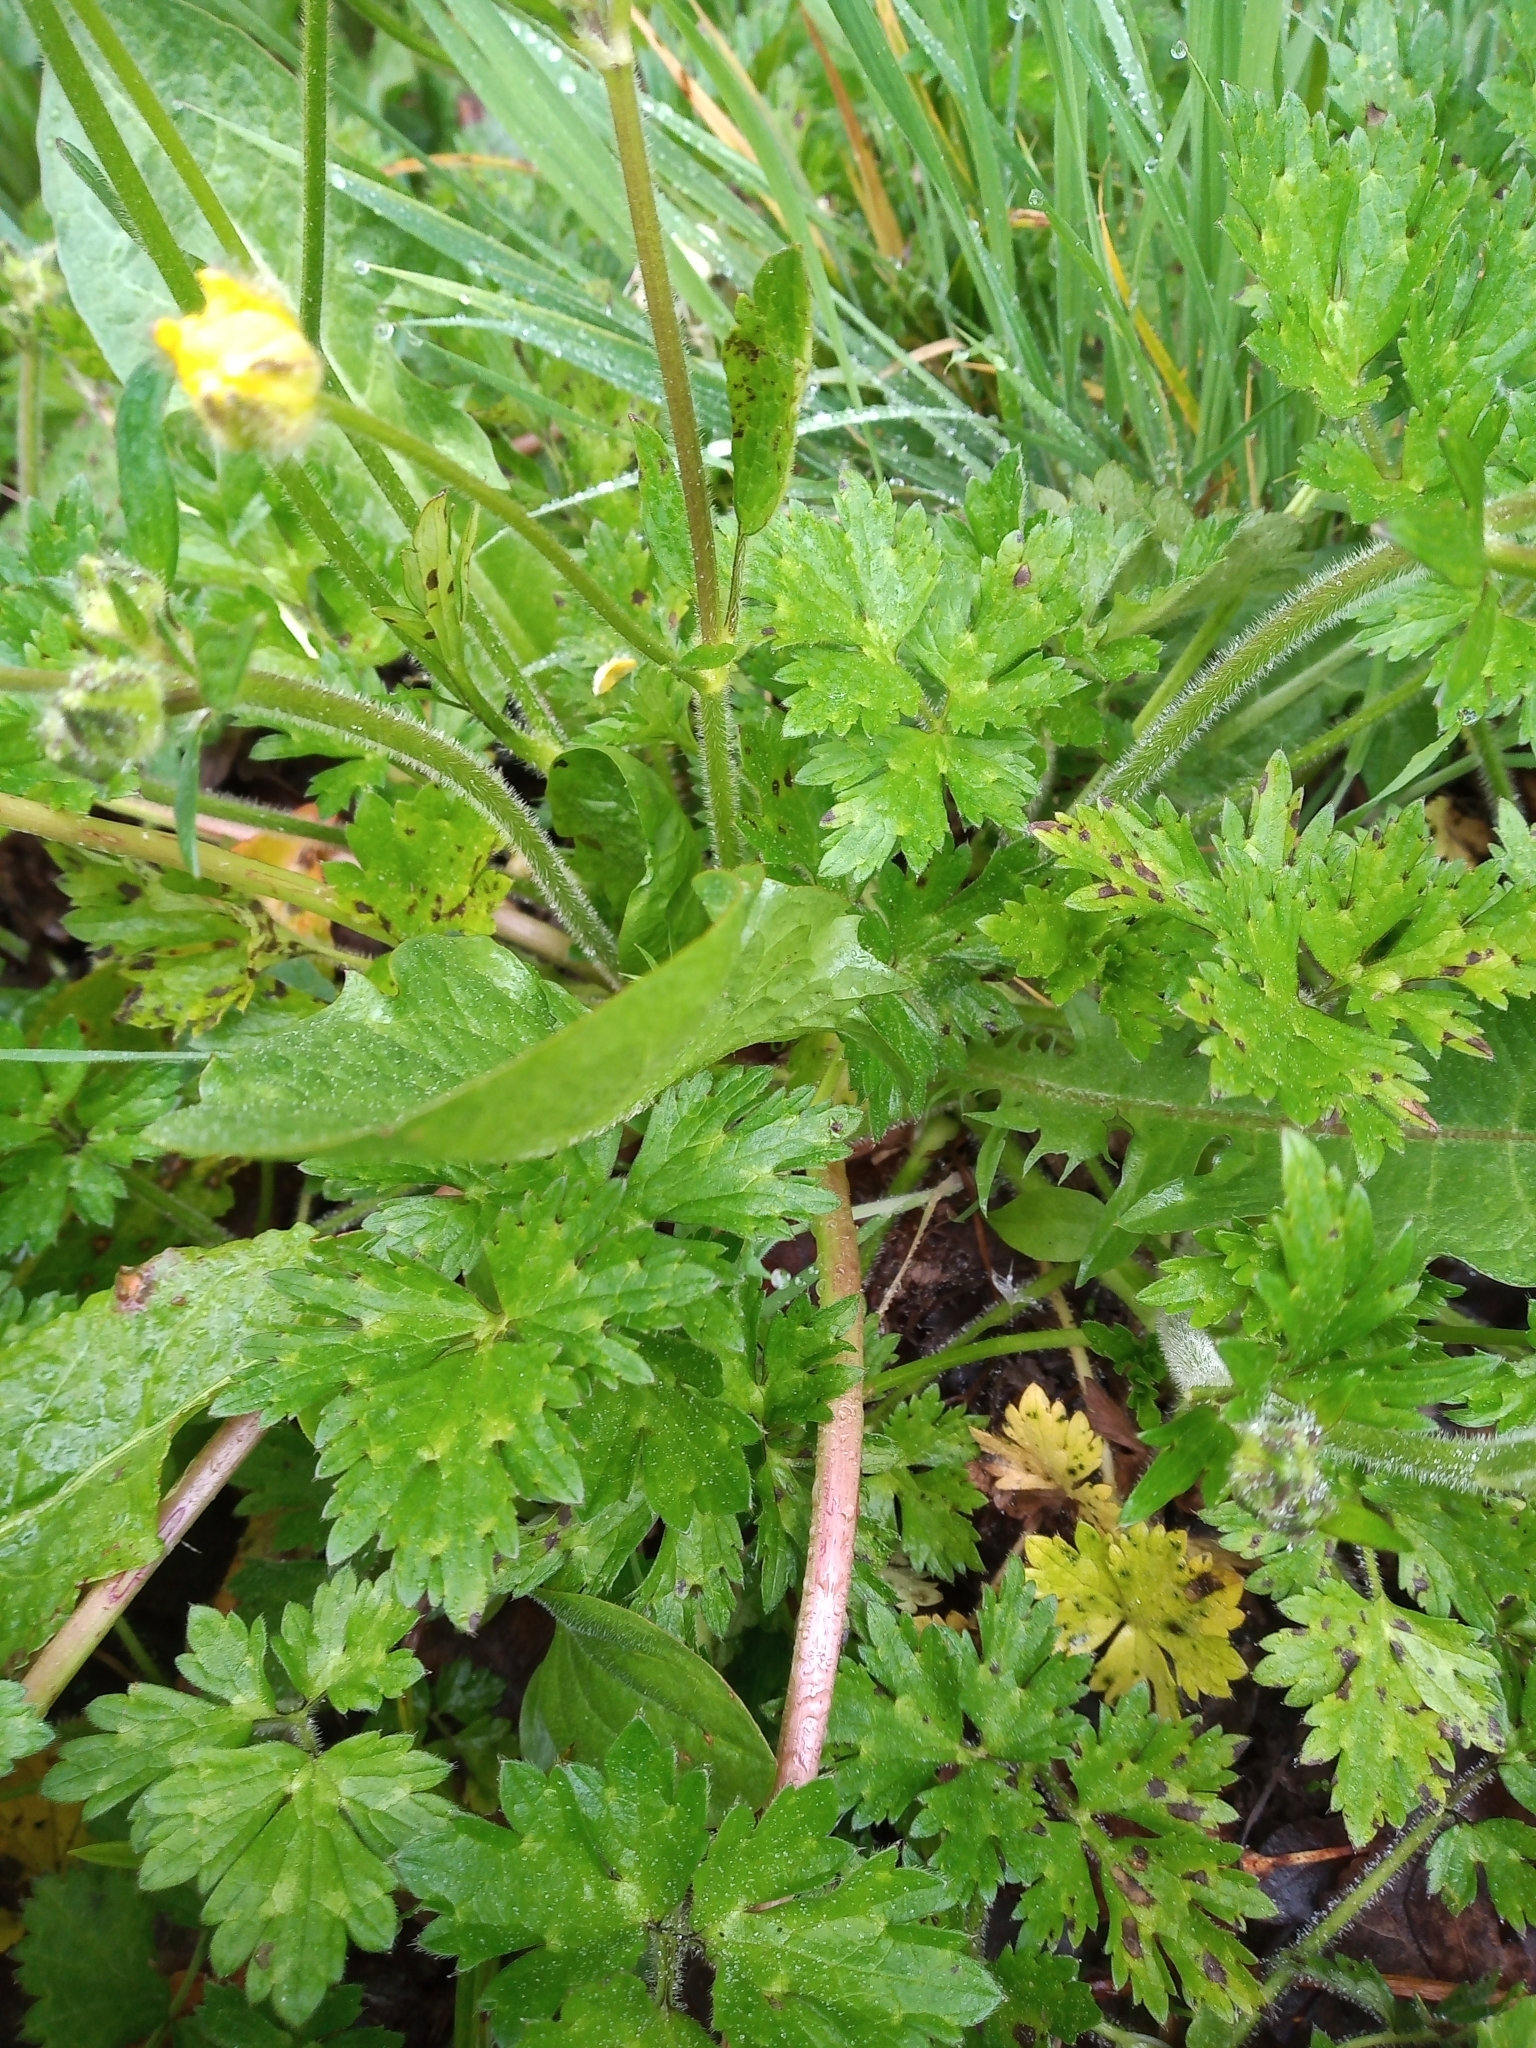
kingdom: Plantae
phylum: Tracheophyta
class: Magnoliopsida
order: Ranunculales
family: Ranunculaceae
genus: Ranunculus
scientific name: Ranunculus repens
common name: Creeping buttercup
